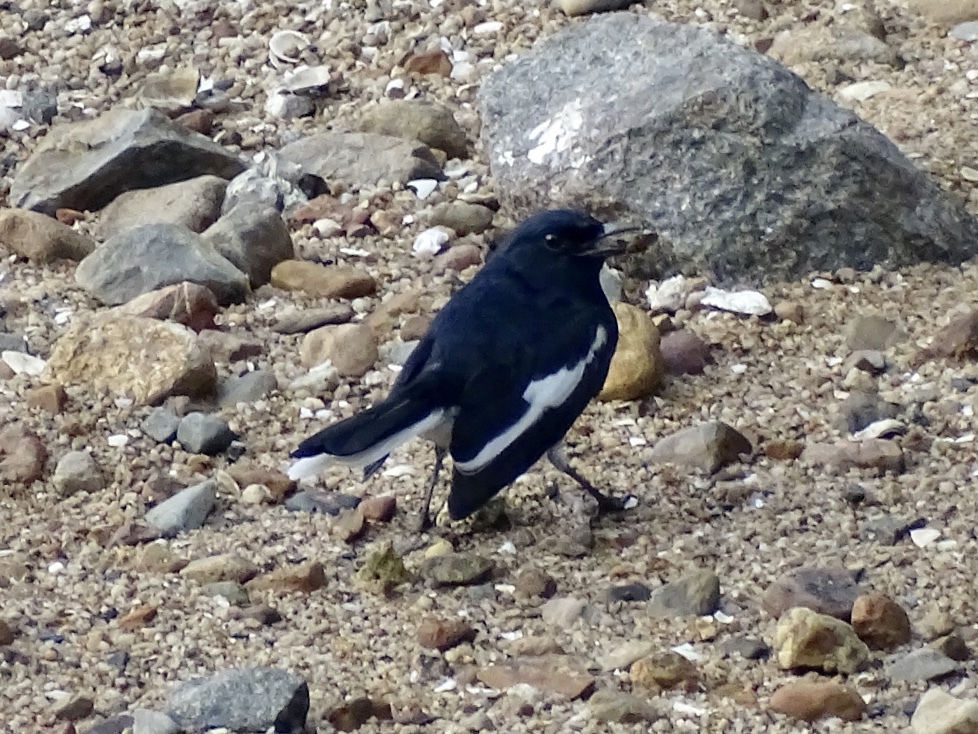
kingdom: Animalia
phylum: Chordata
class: Aves
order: Passeriformes
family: Muscicapidae
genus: Copsychus
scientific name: Copsychus saularis
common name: Oriental magpie-robin
